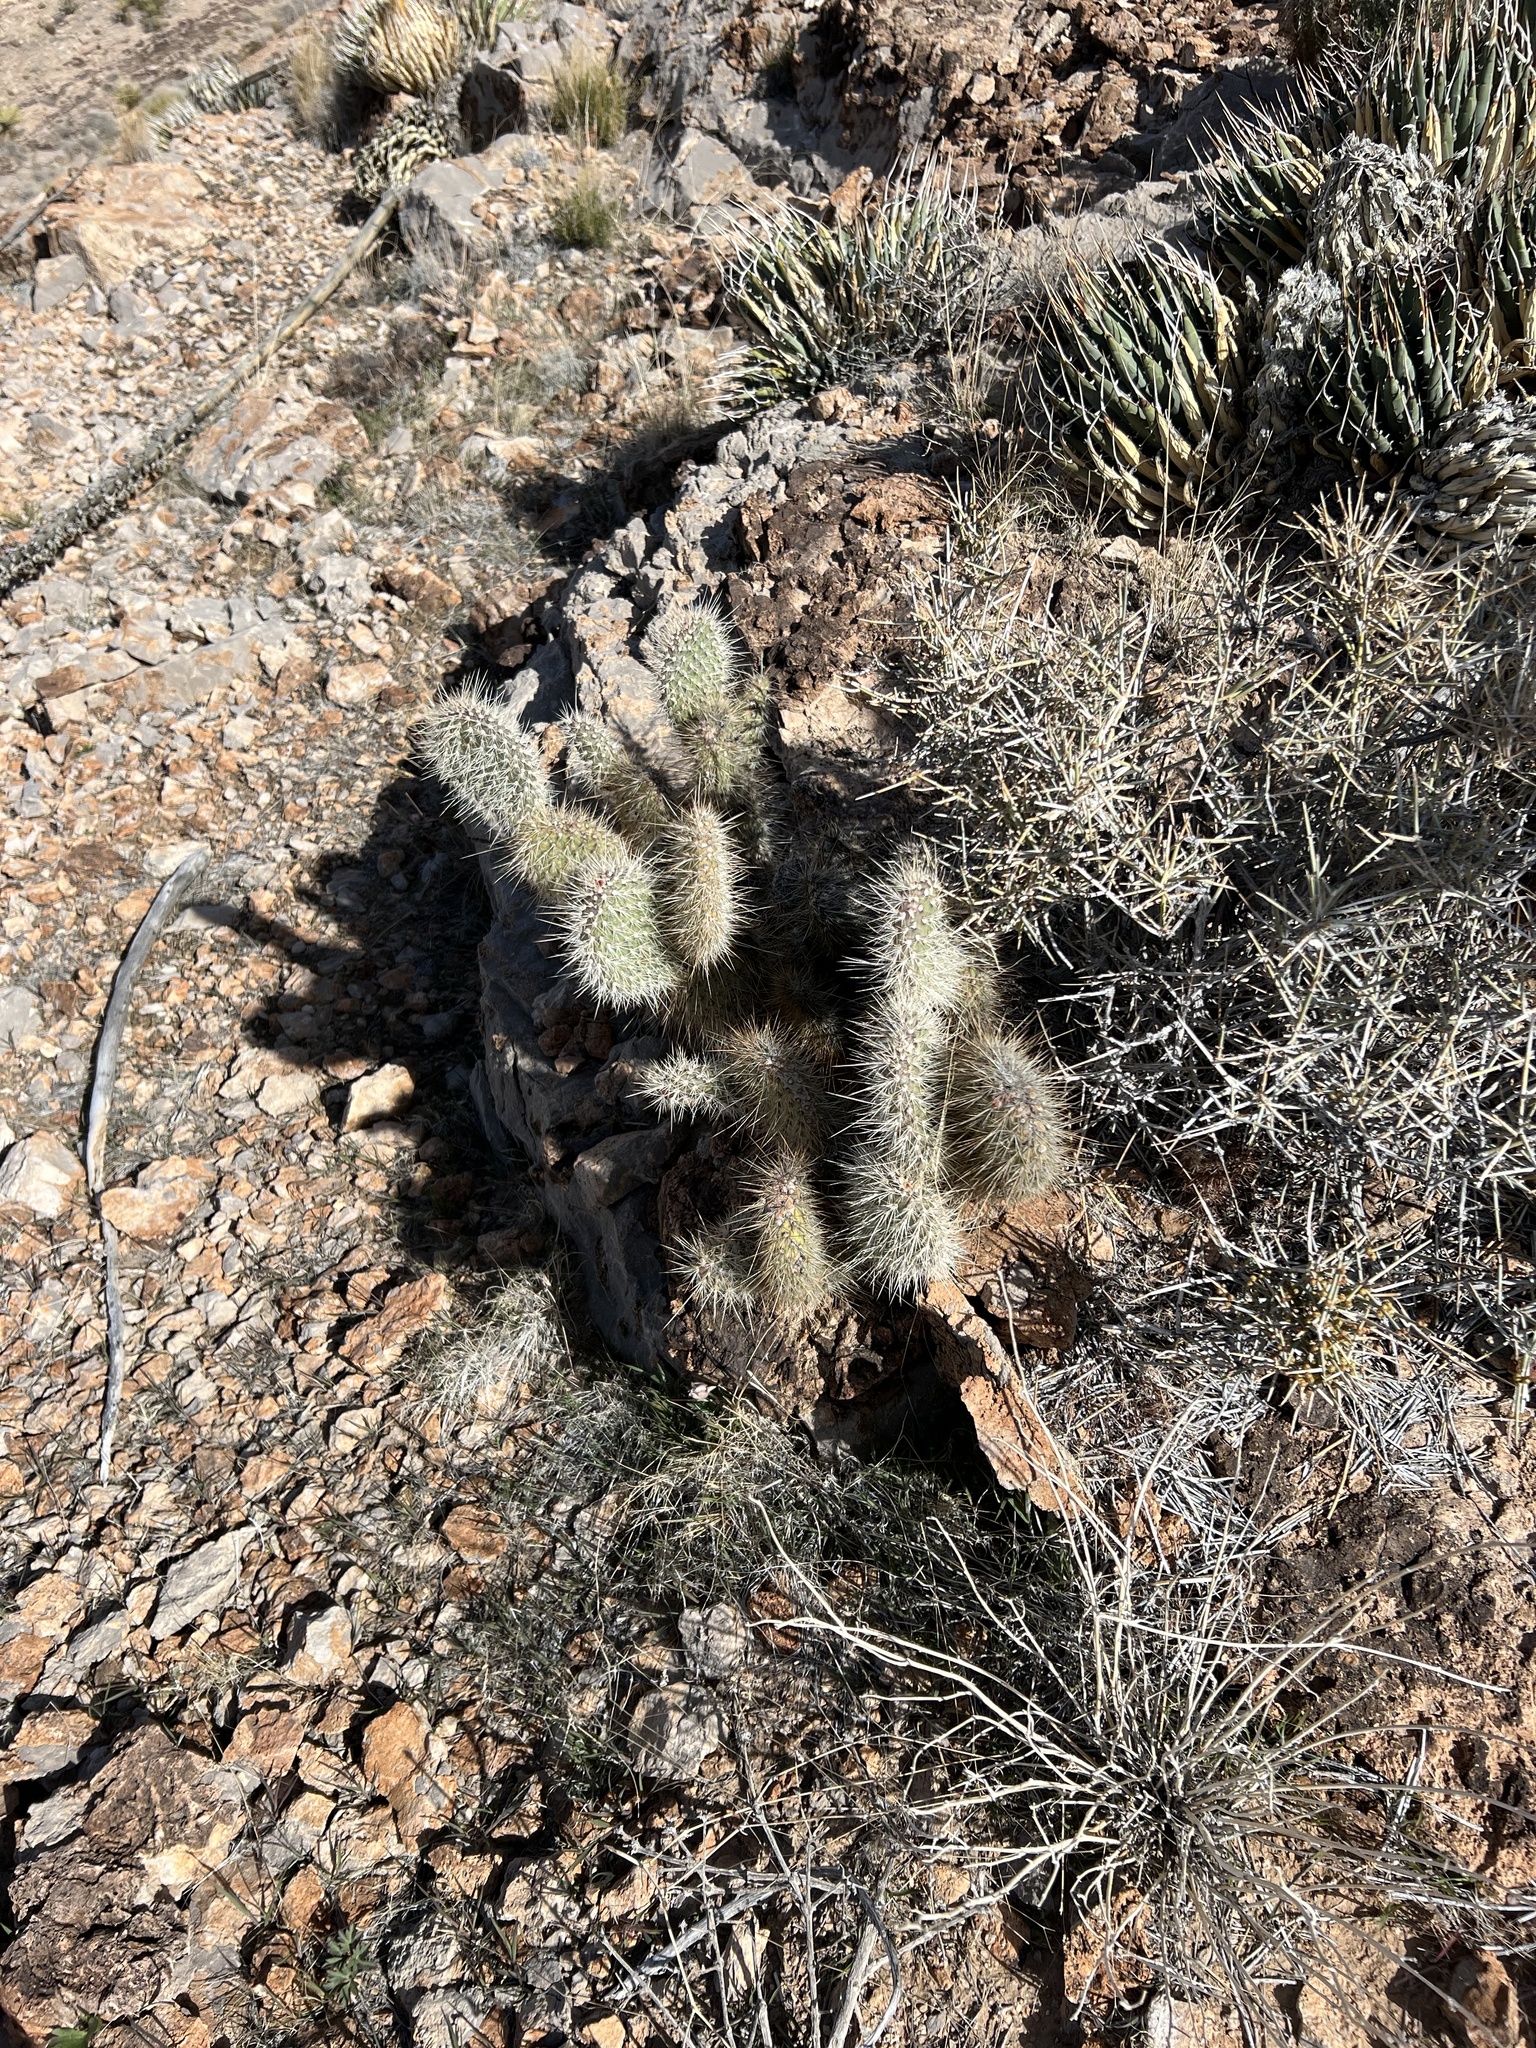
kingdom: Plantae
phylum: Tracheophyta
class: Magnoliopsida
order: Caryophyllales
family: Cactaceae
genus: Opuntia
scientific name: Opuntia polyacantha
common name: Plains prickly-pear
